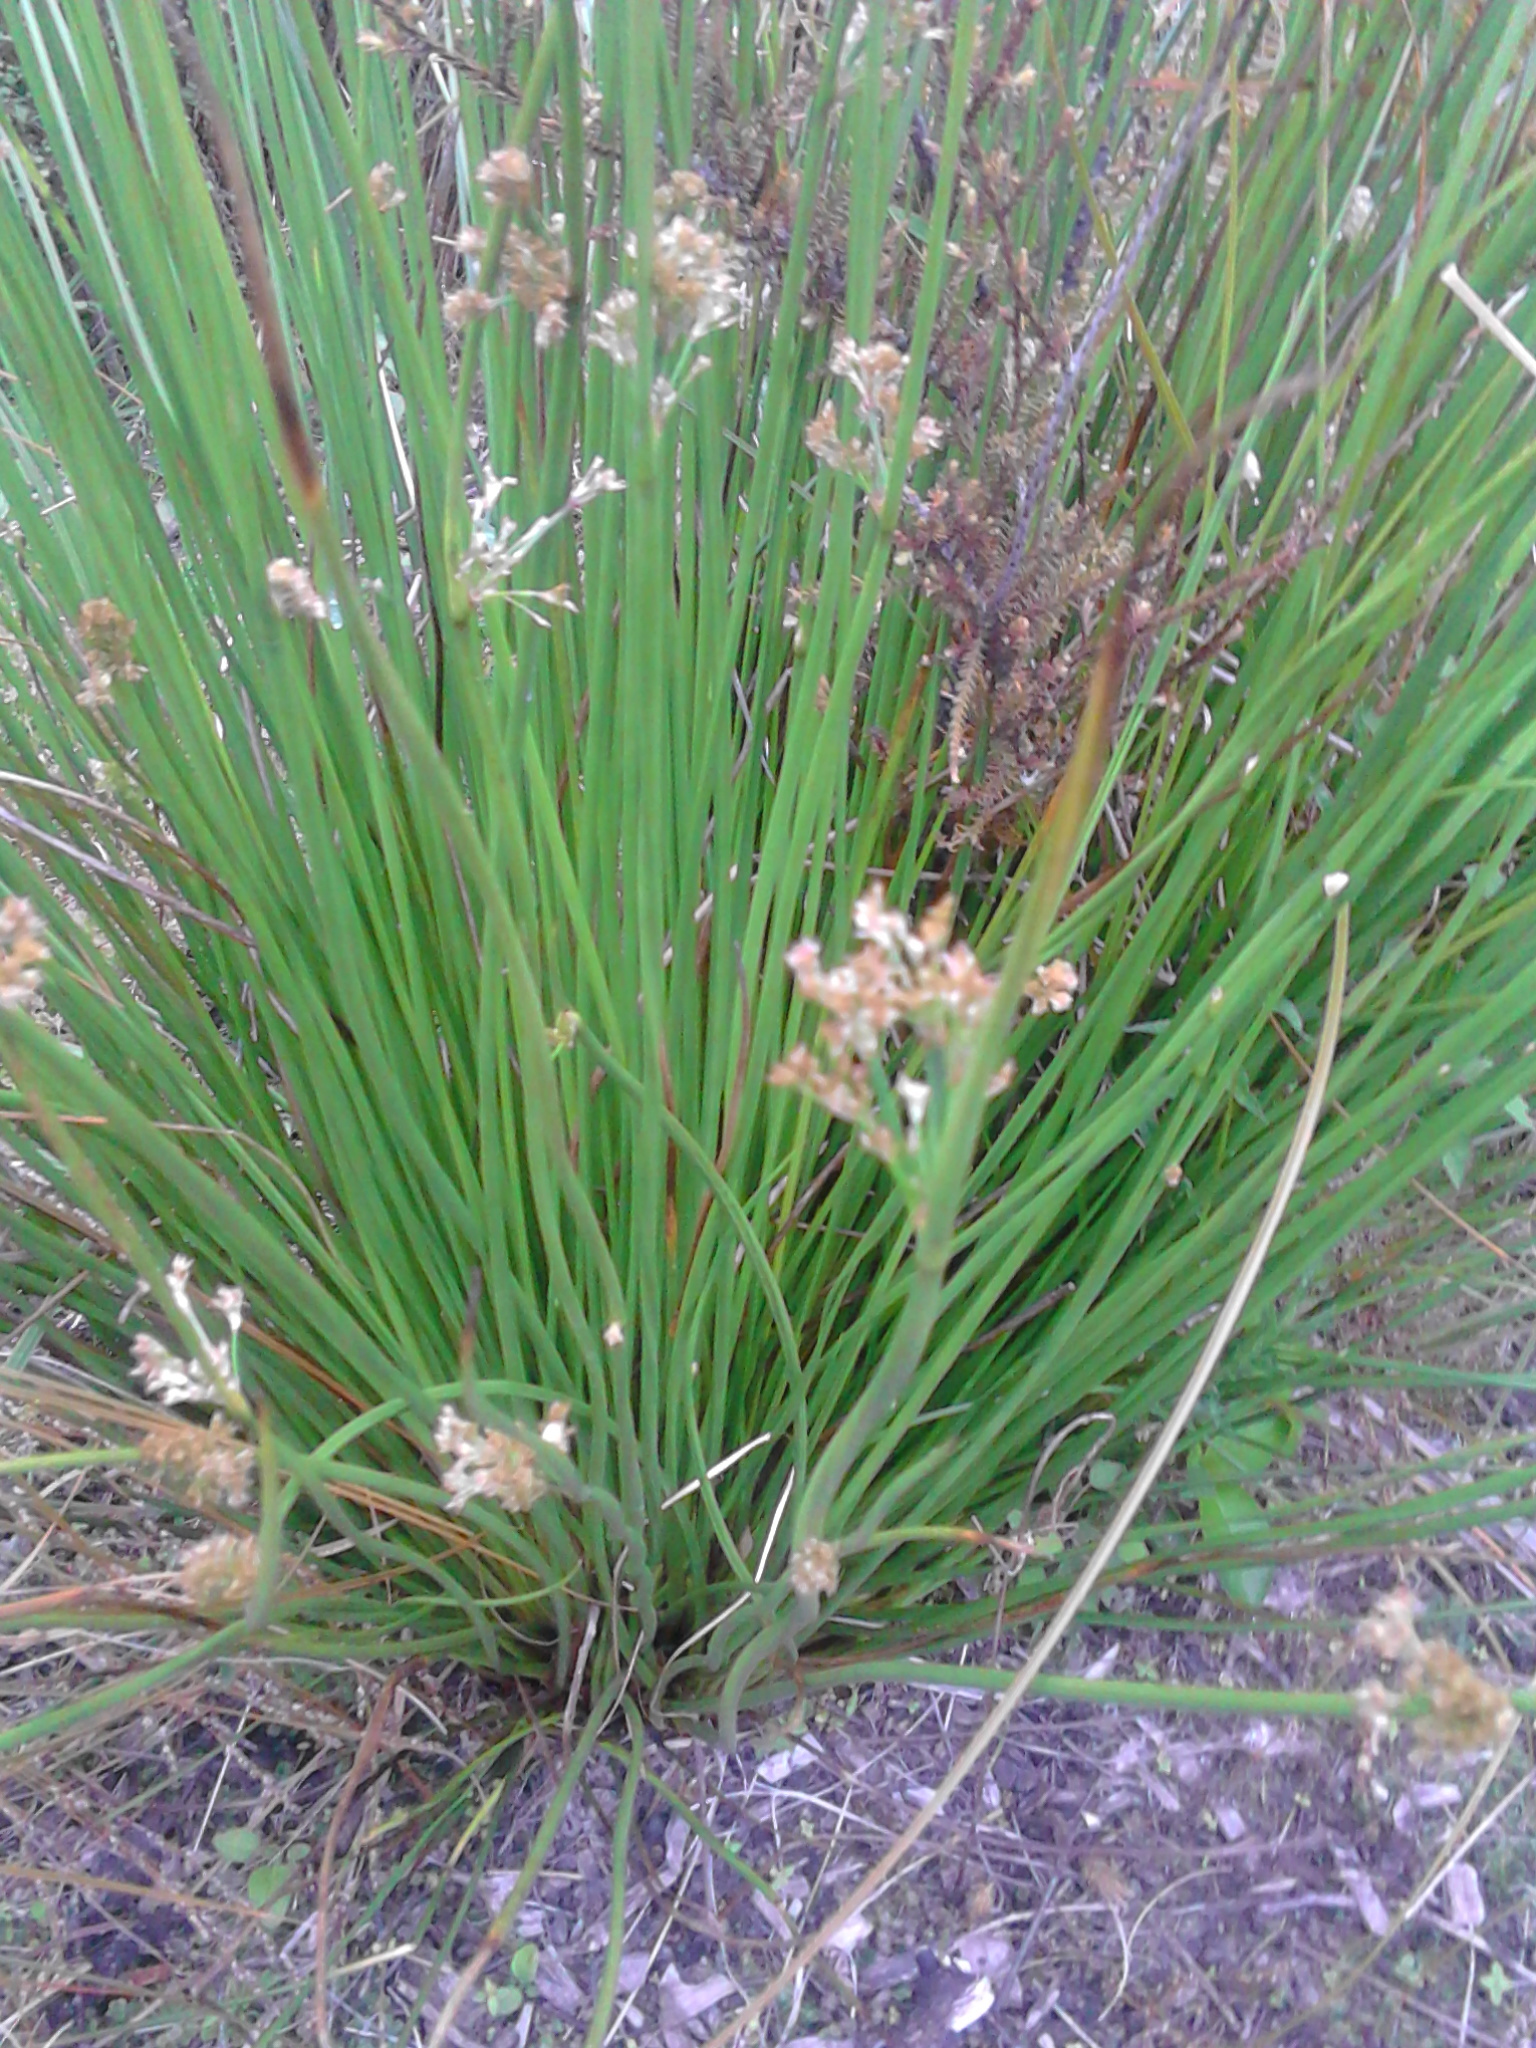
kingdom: Plantae
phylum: Tracheophyta
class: Liliopsida
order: Poales
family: Juncaceae
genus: Juncus
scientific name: Juncus effusus
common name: Soft rush
